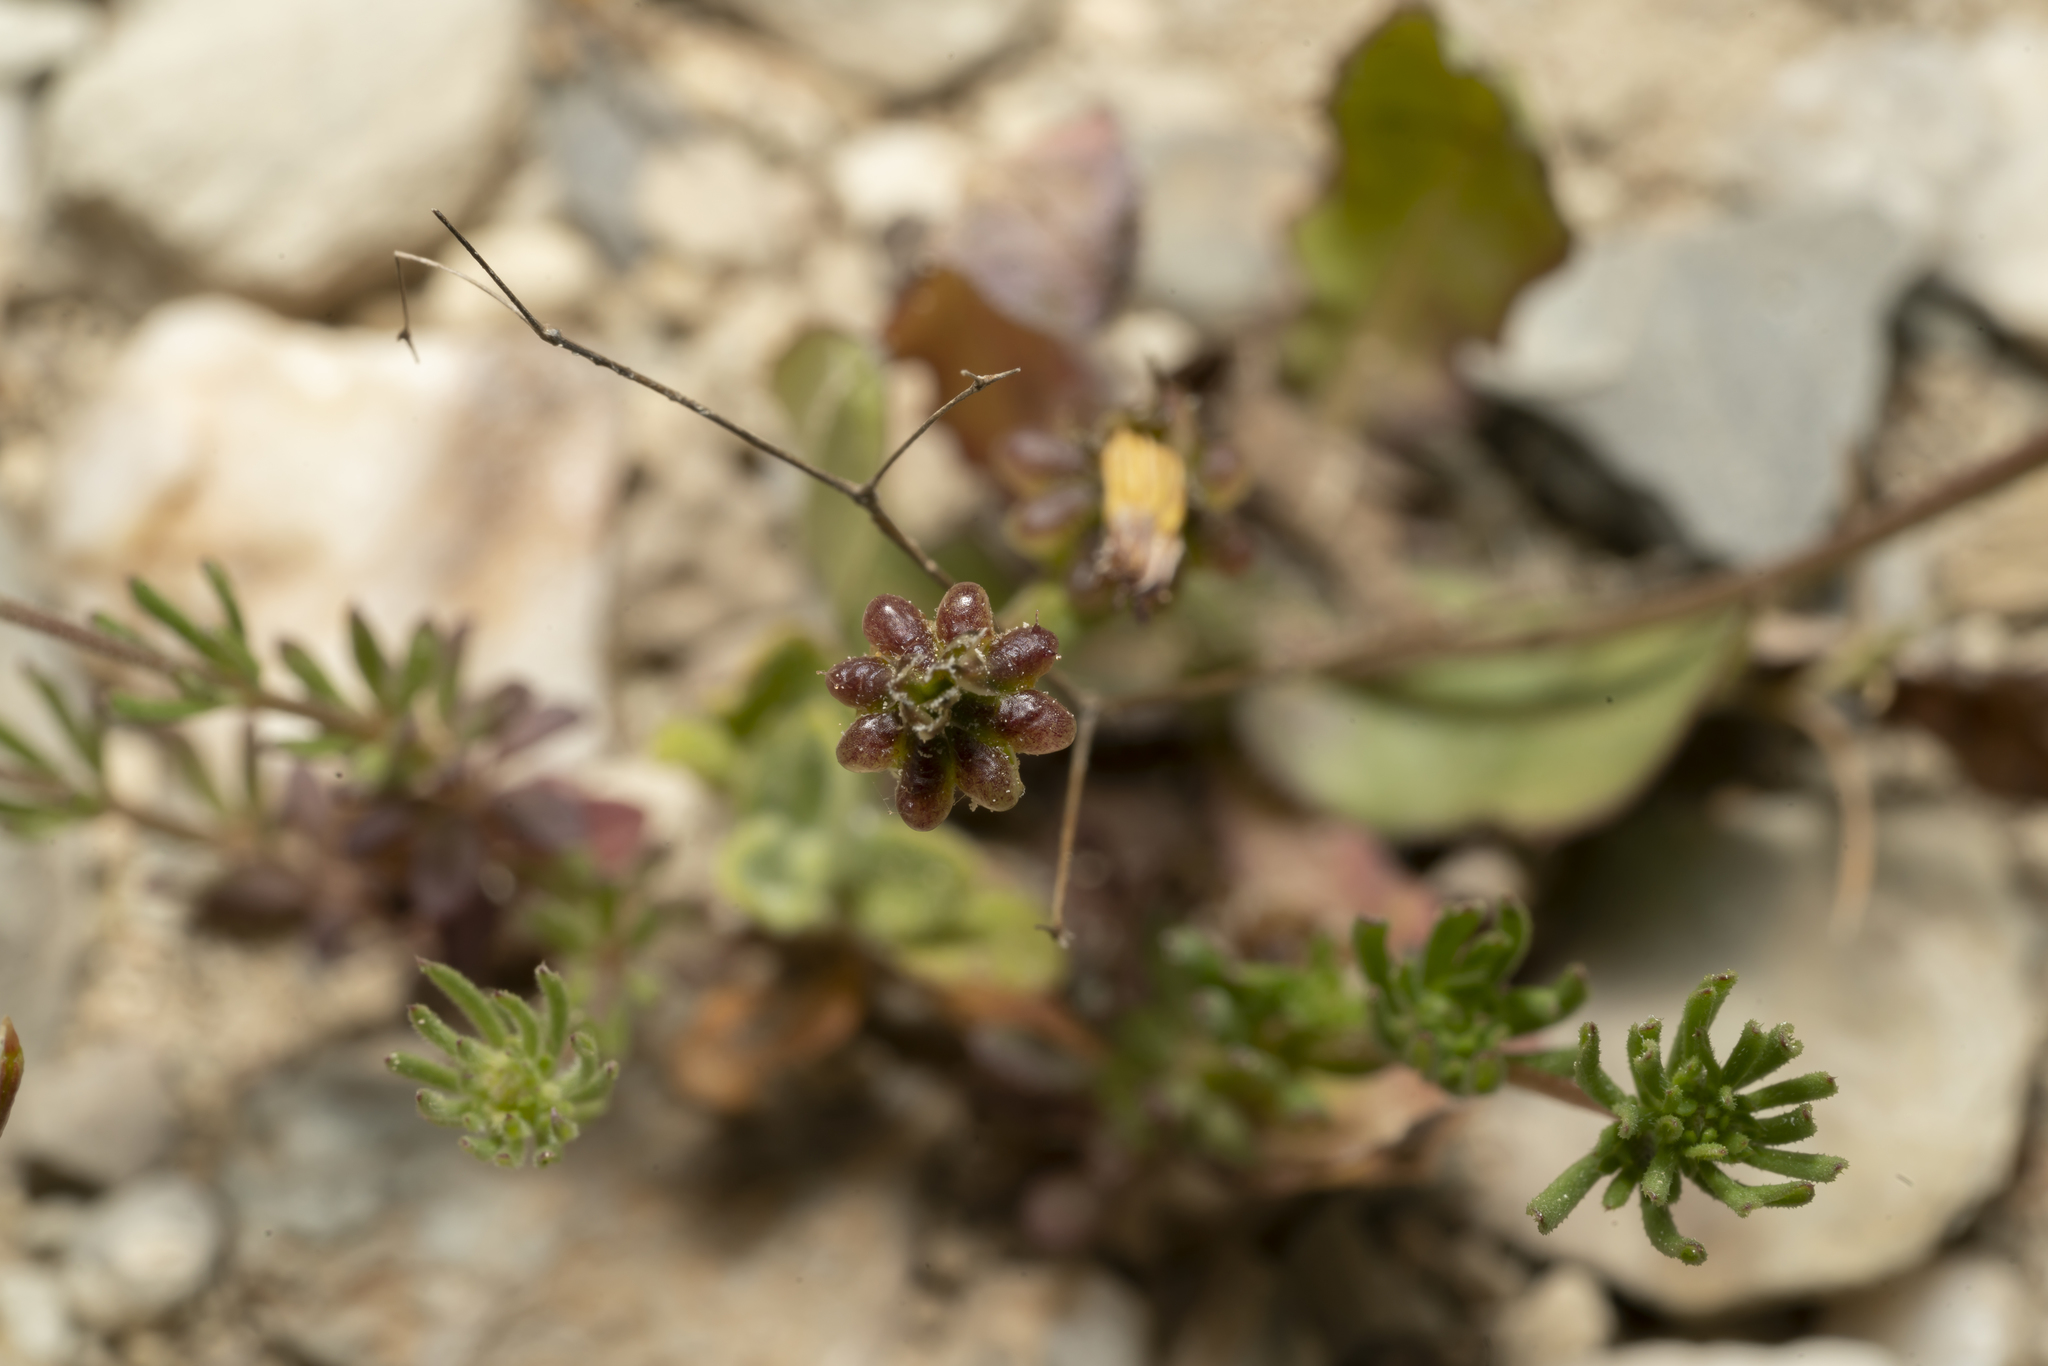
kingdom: Plantae
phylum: Tracheophyta
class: Magnoliopsida
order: Asterales
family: Asteraceae
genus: Crepis
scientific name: Crepis zacintha
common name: Striped hawksbeard
